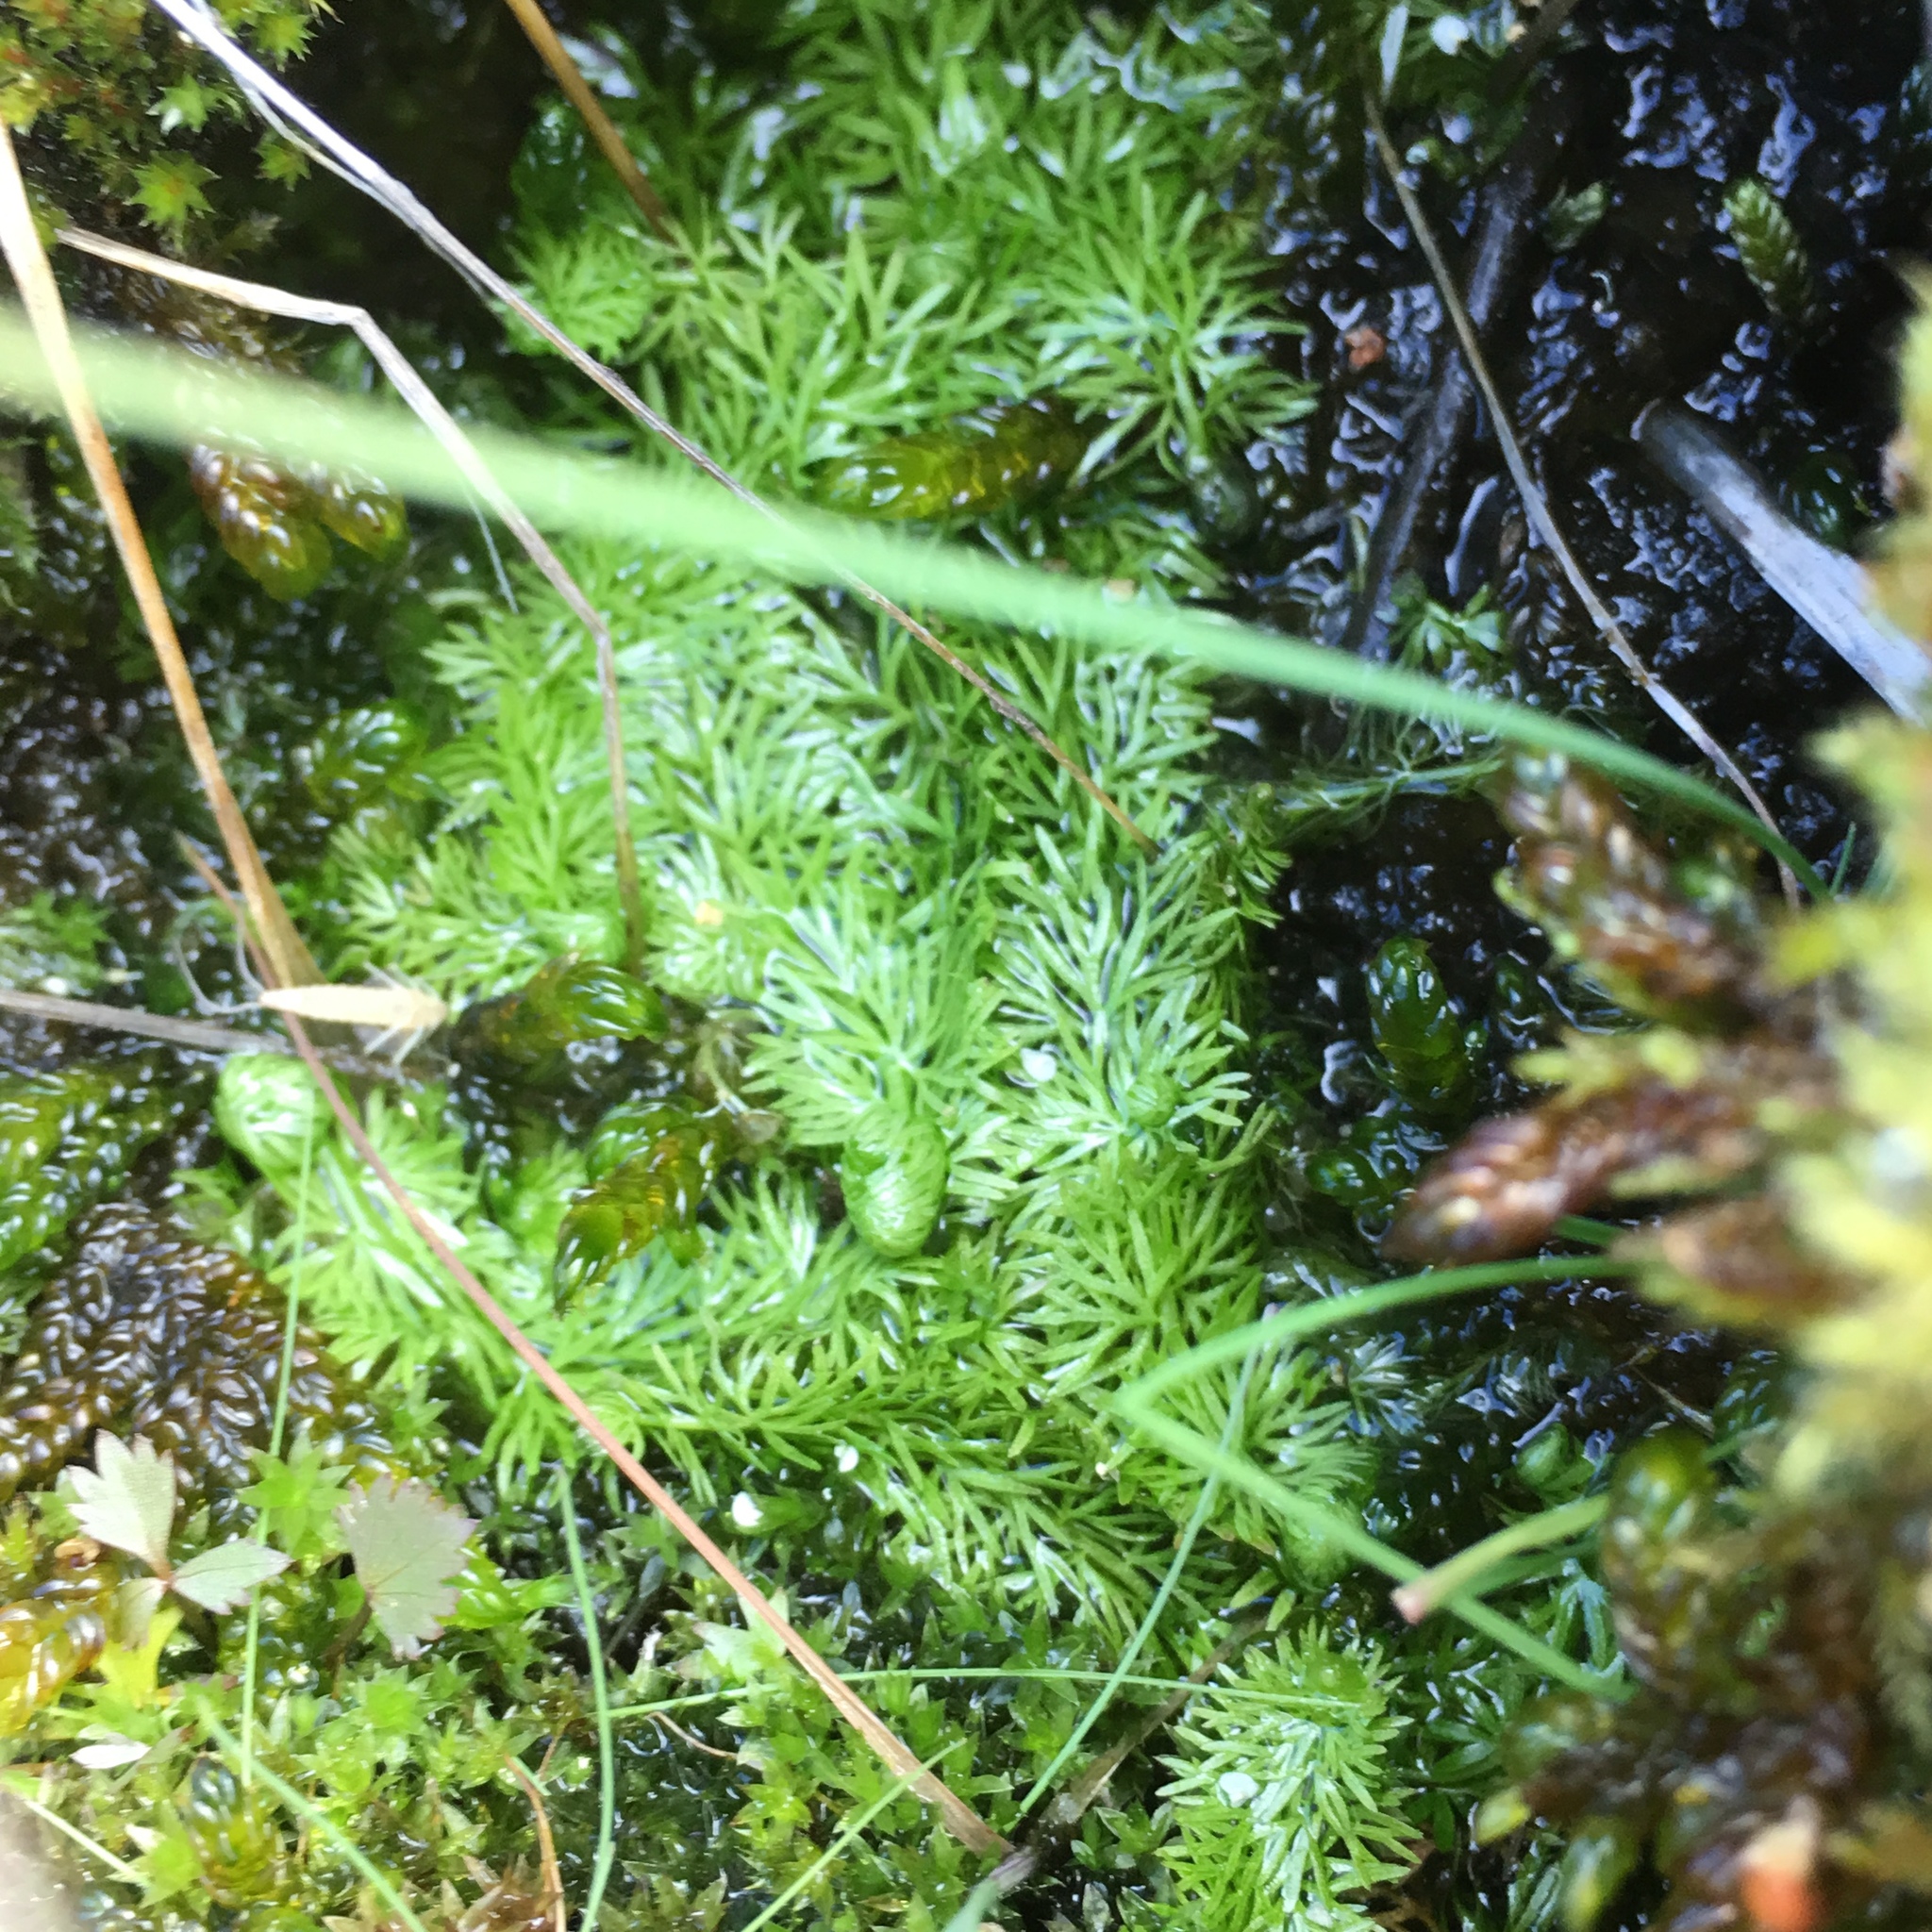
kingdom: Plantae
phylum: Tracheophyta
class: Magnoliopsida
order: Lamiales
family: Lentibulariaceae
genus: Utricularia
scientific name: Utricularia intermedia
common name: Intermediate bladderwort
